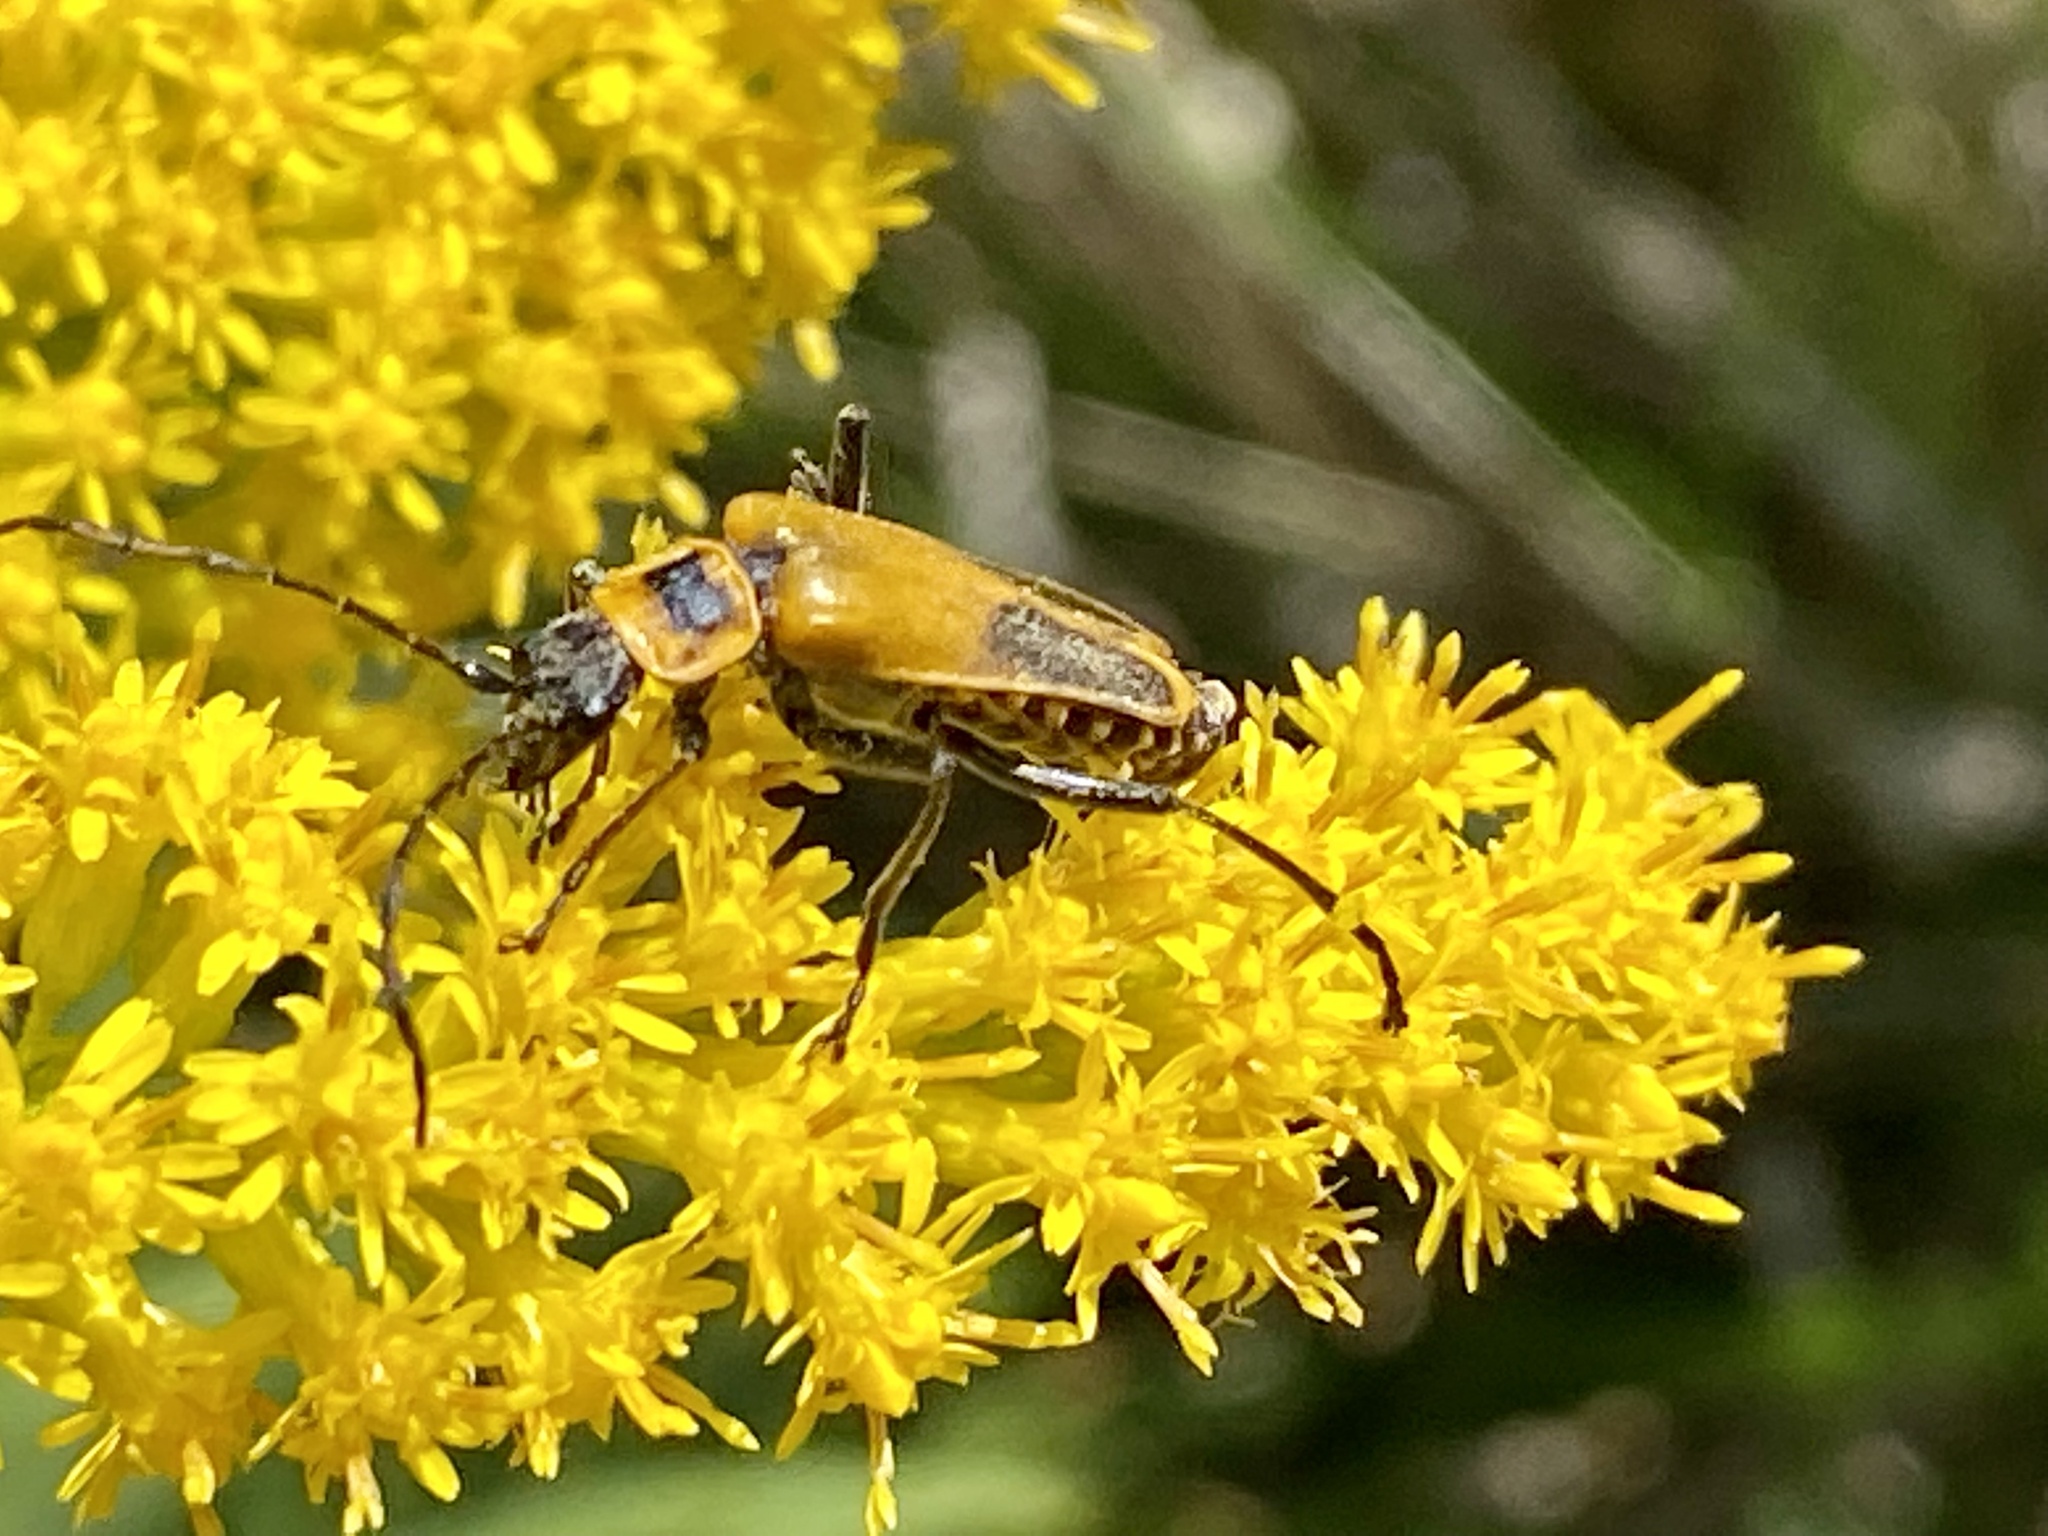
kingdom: Animalia
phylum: Arthropoda
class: Insecta
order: Coleoptera
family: Cantharidae
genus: Chauliognathus
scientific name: Chauliognathus pensylvanicus
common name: Goldenrod soldier beetle
